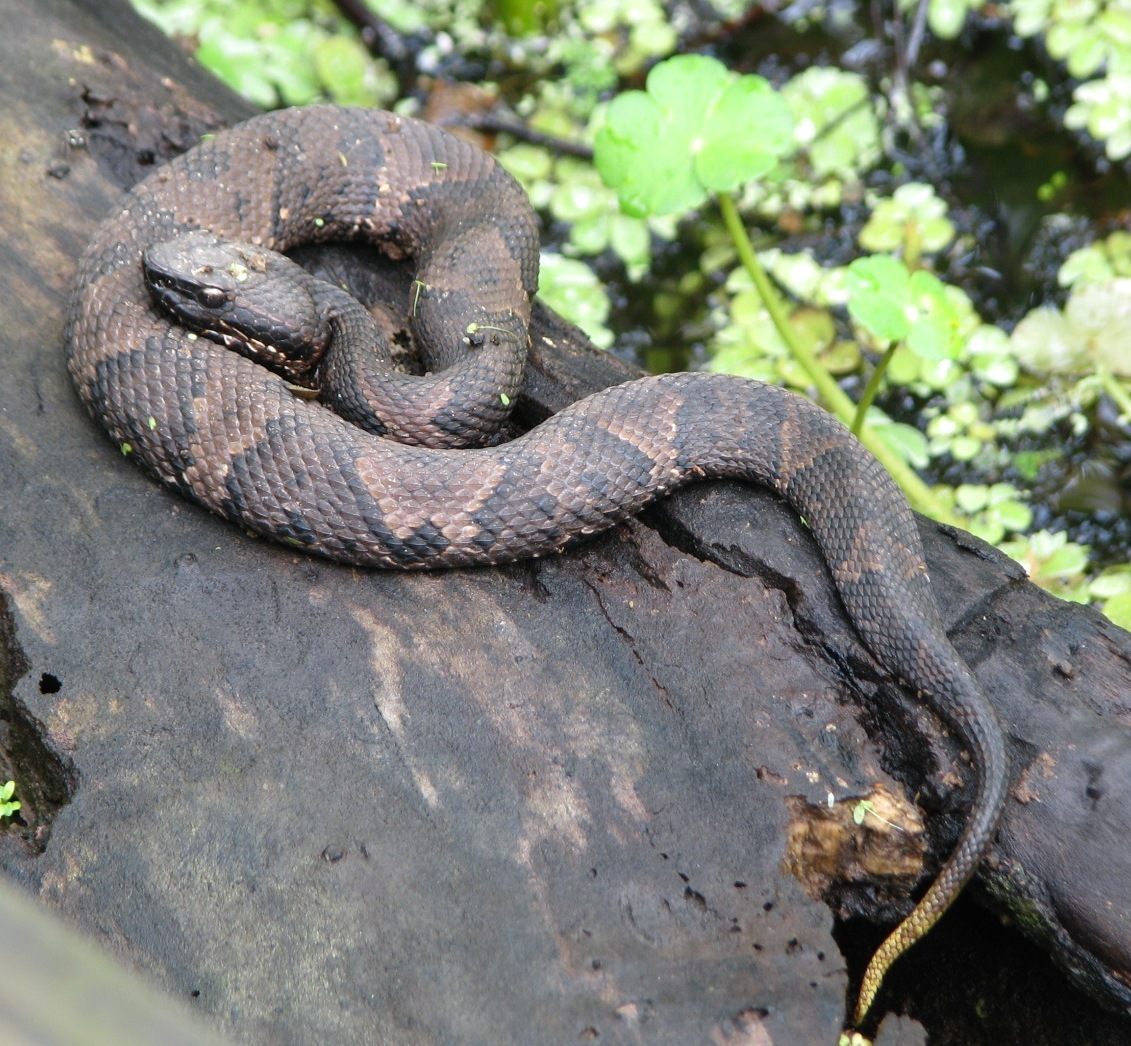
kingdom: Animalia
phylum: Chordata
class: Squamata
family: Viperidae
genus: Agkistrodon
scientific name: Agkistrodon piscivorus
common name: Cottonmouth
